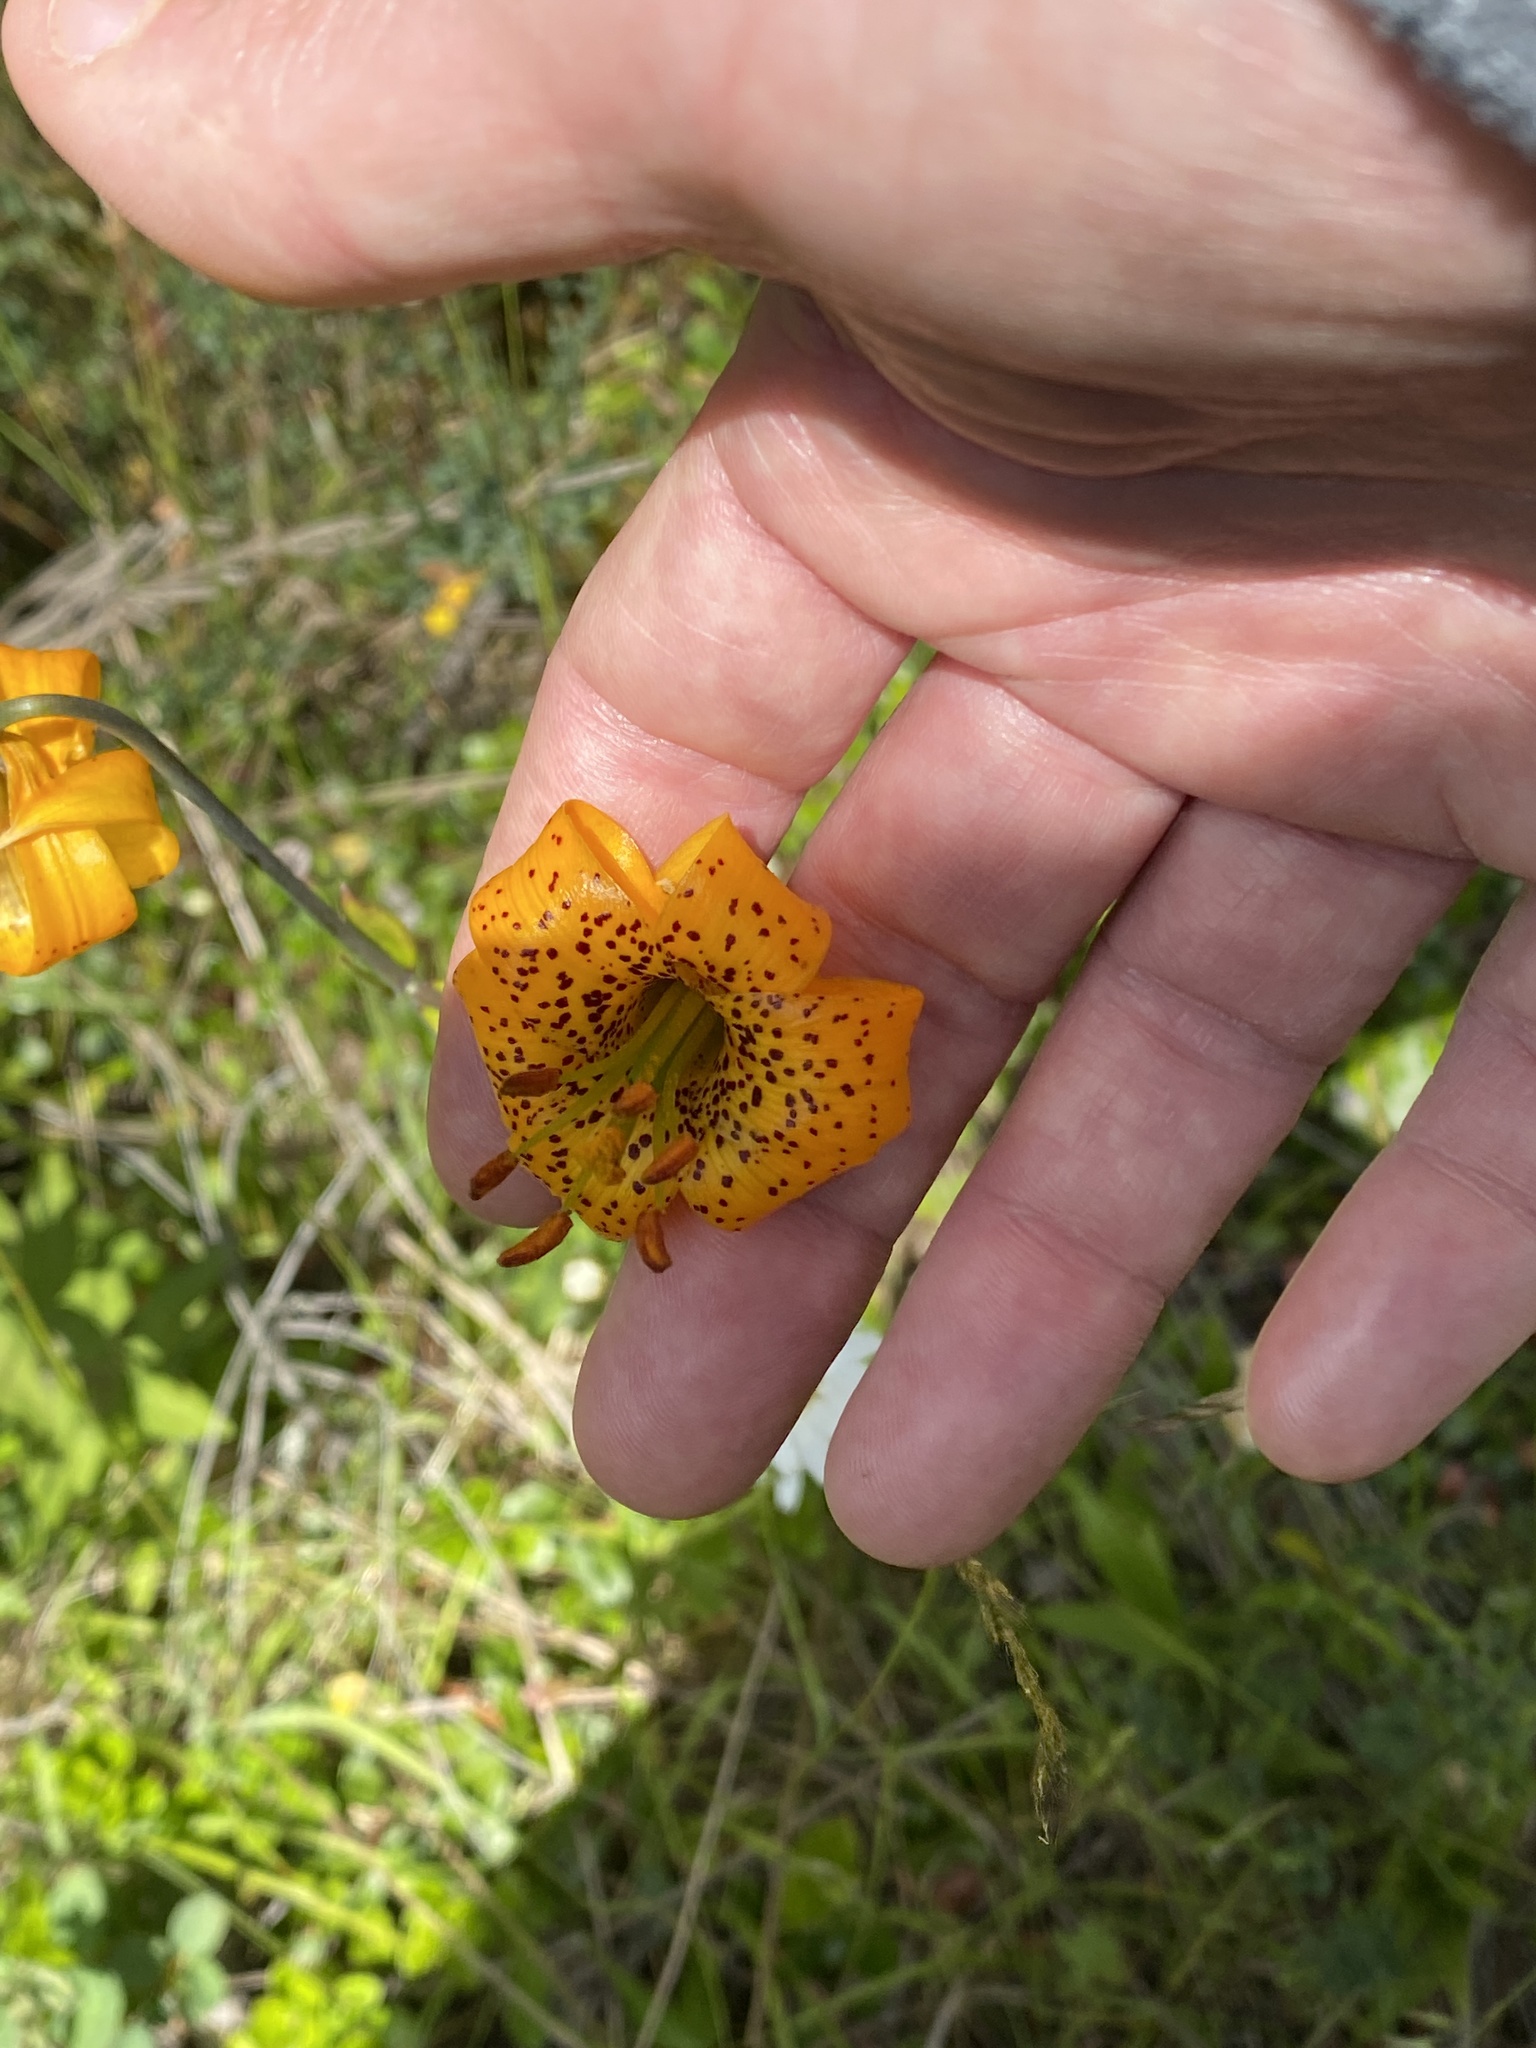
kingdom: Plantae
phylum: Tracheophyta
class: Liliopsida
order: Liliales
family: Liliaceae
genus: Lilium
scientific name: Lilium columbianum
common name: Columbia lily
